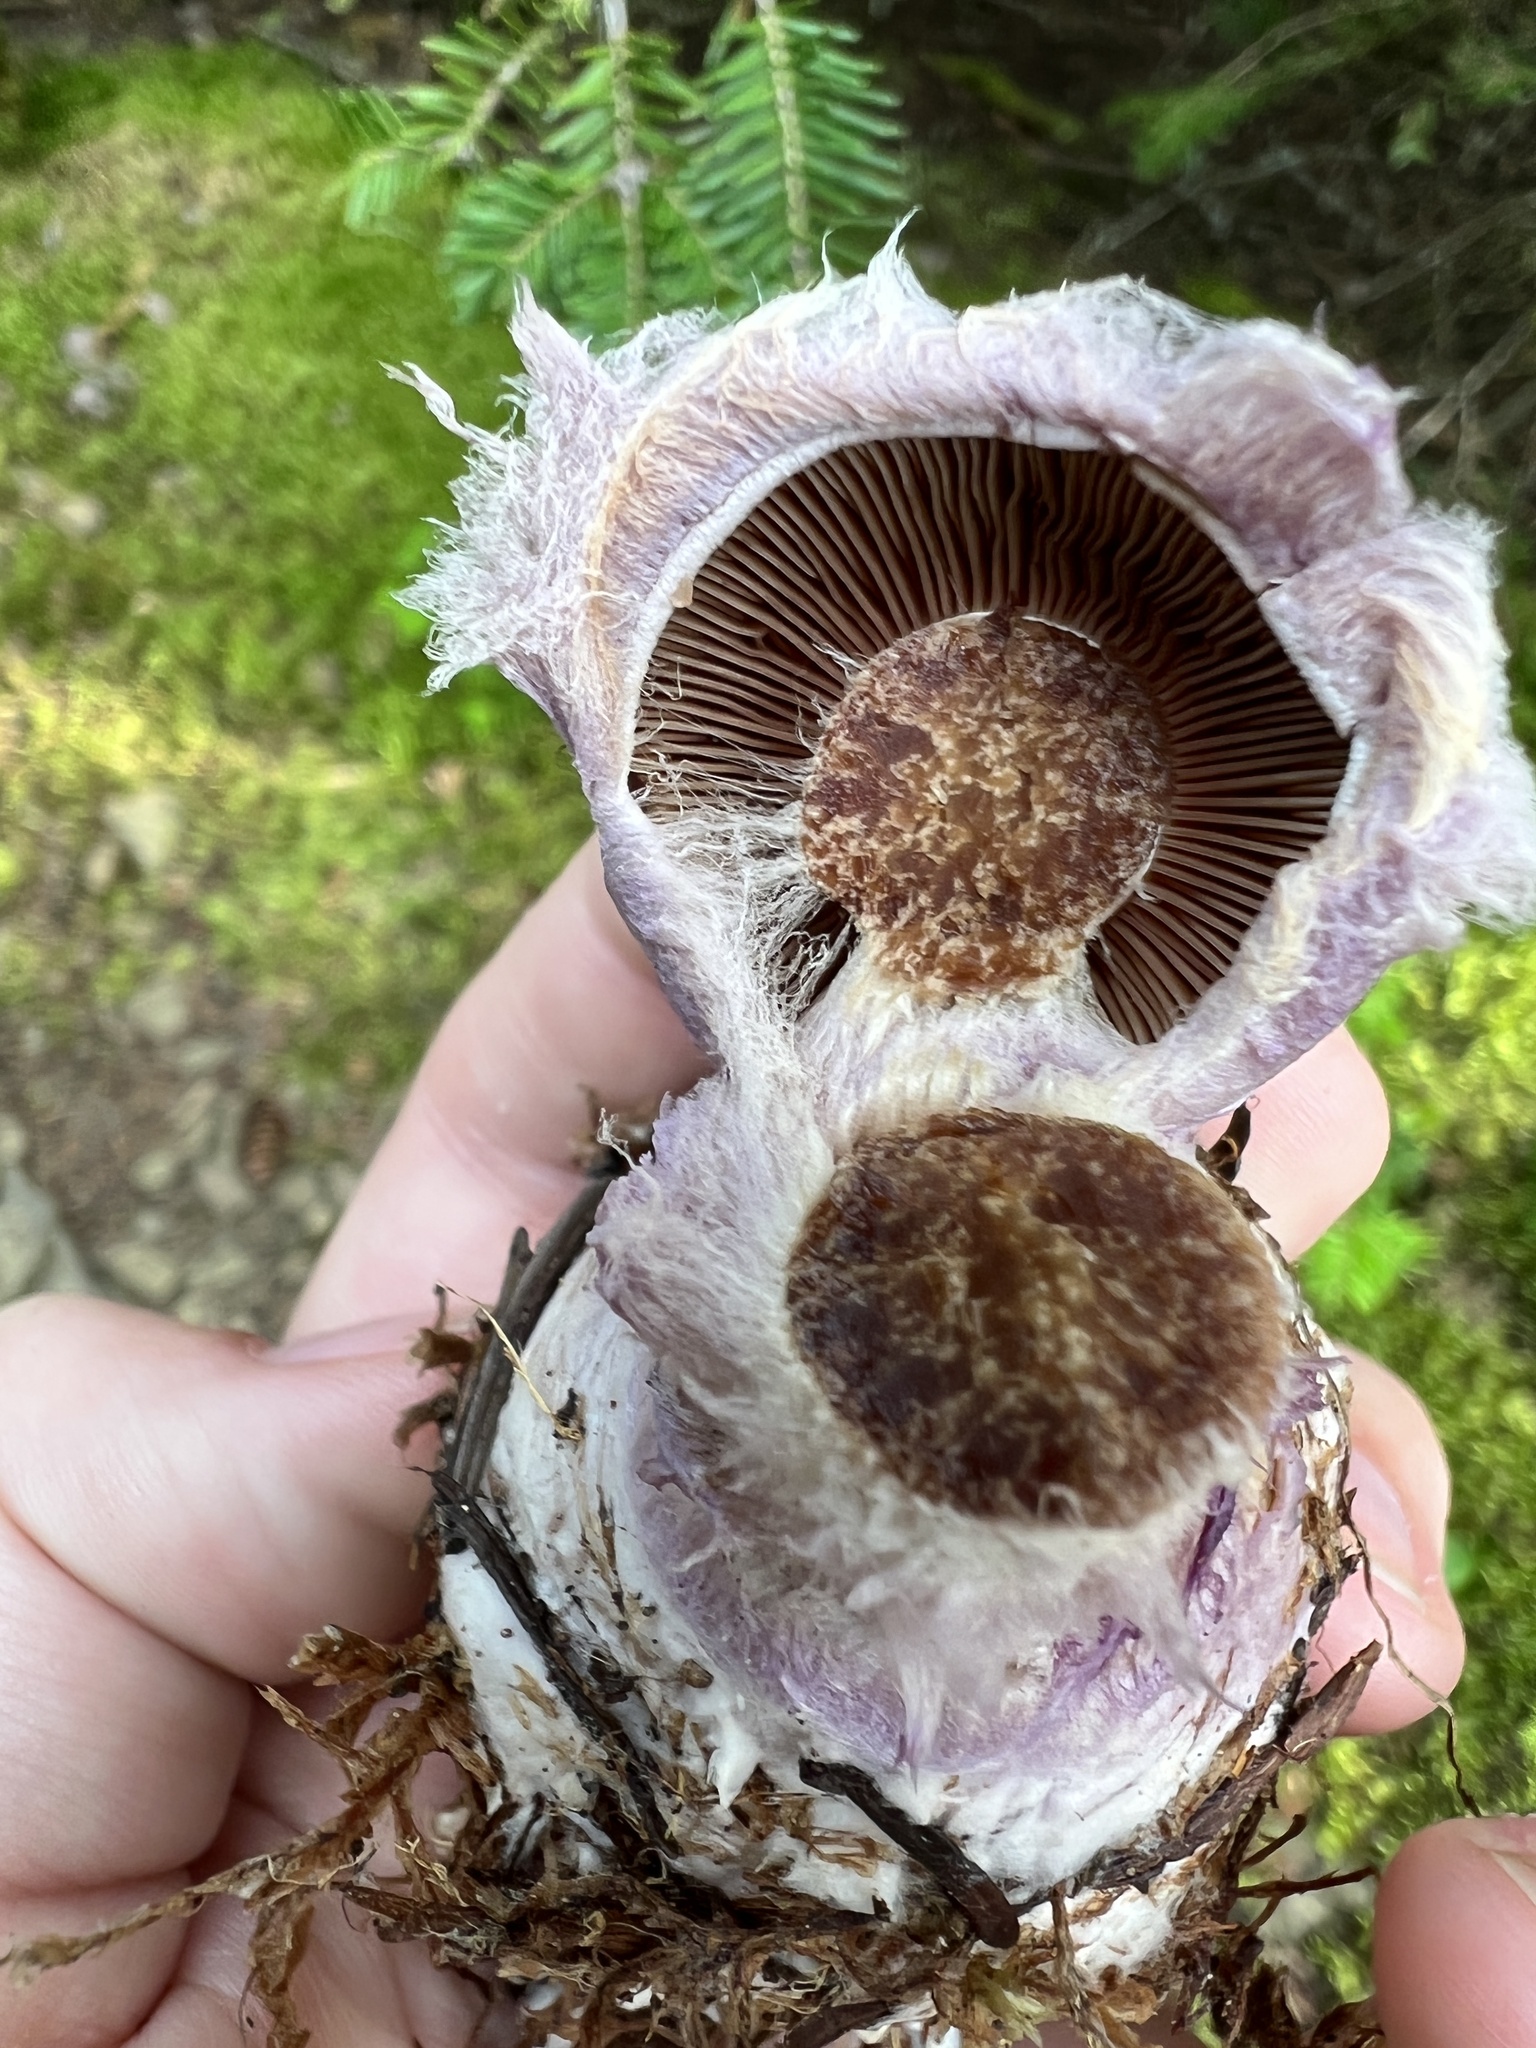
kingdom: Fungi
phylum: Basidiomycota
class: Agaricomycetes
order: Agaricales
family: Cortinariaceae
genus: Cortinarius
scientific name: Cortinarius traganus
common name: Gassy webcap
